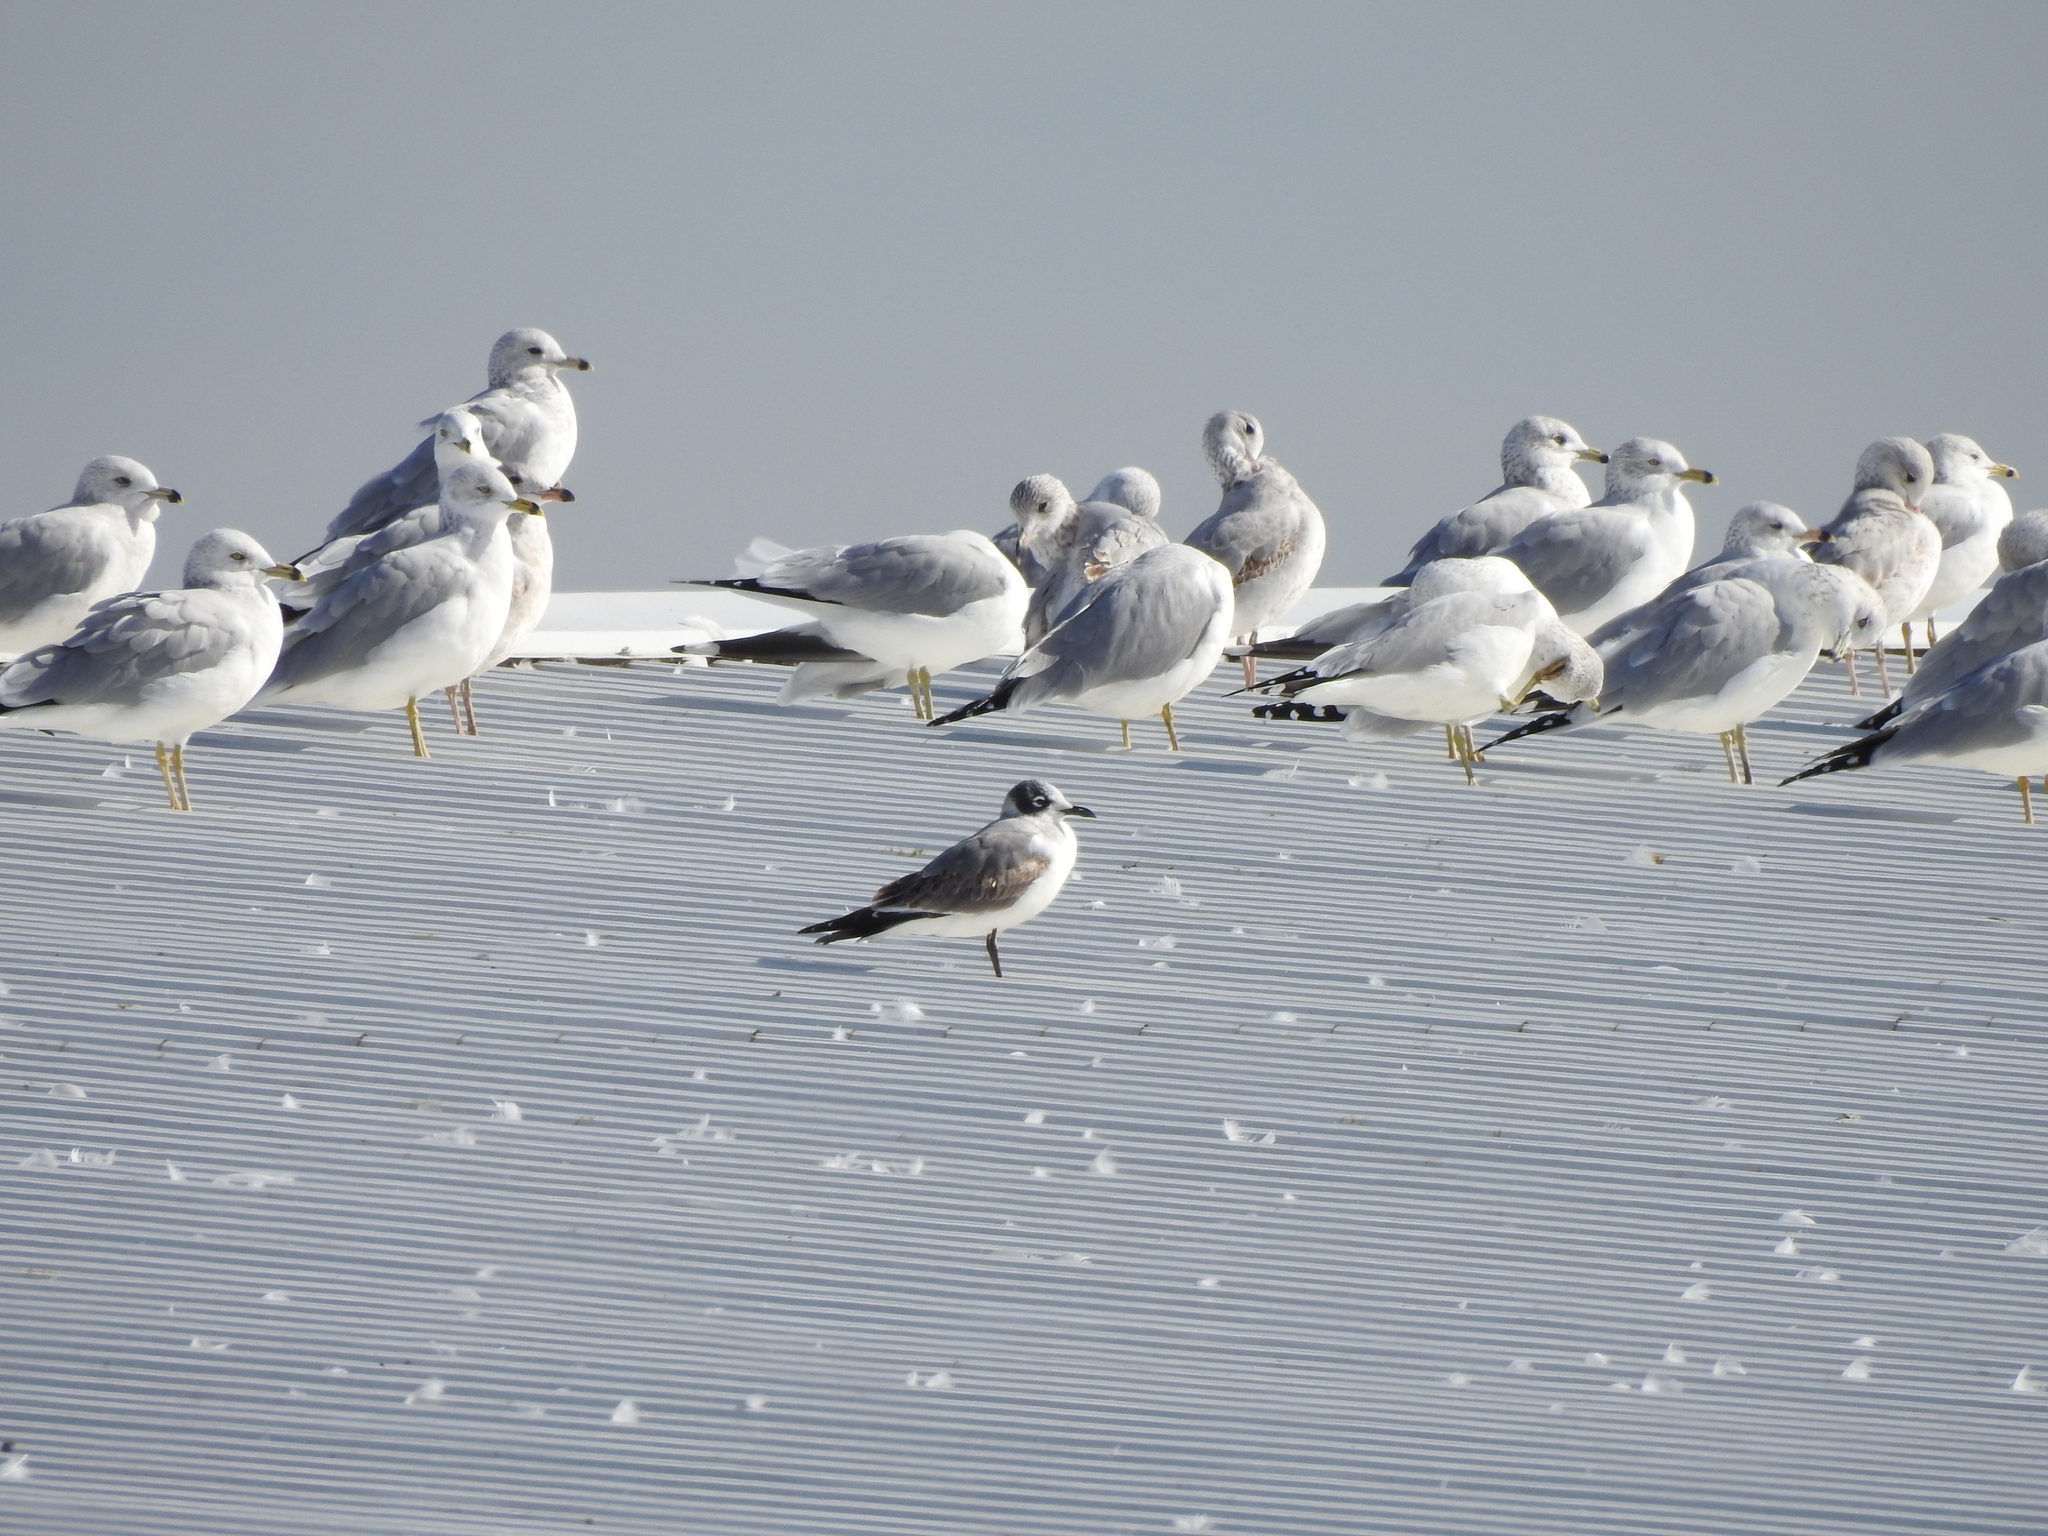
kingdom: Animalia
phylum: Chordata
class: Aves
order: Charadriiformes
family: Laridae
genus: Leucophaeus
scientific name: Leucophaeus pipixcan
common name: Franklin's gull
